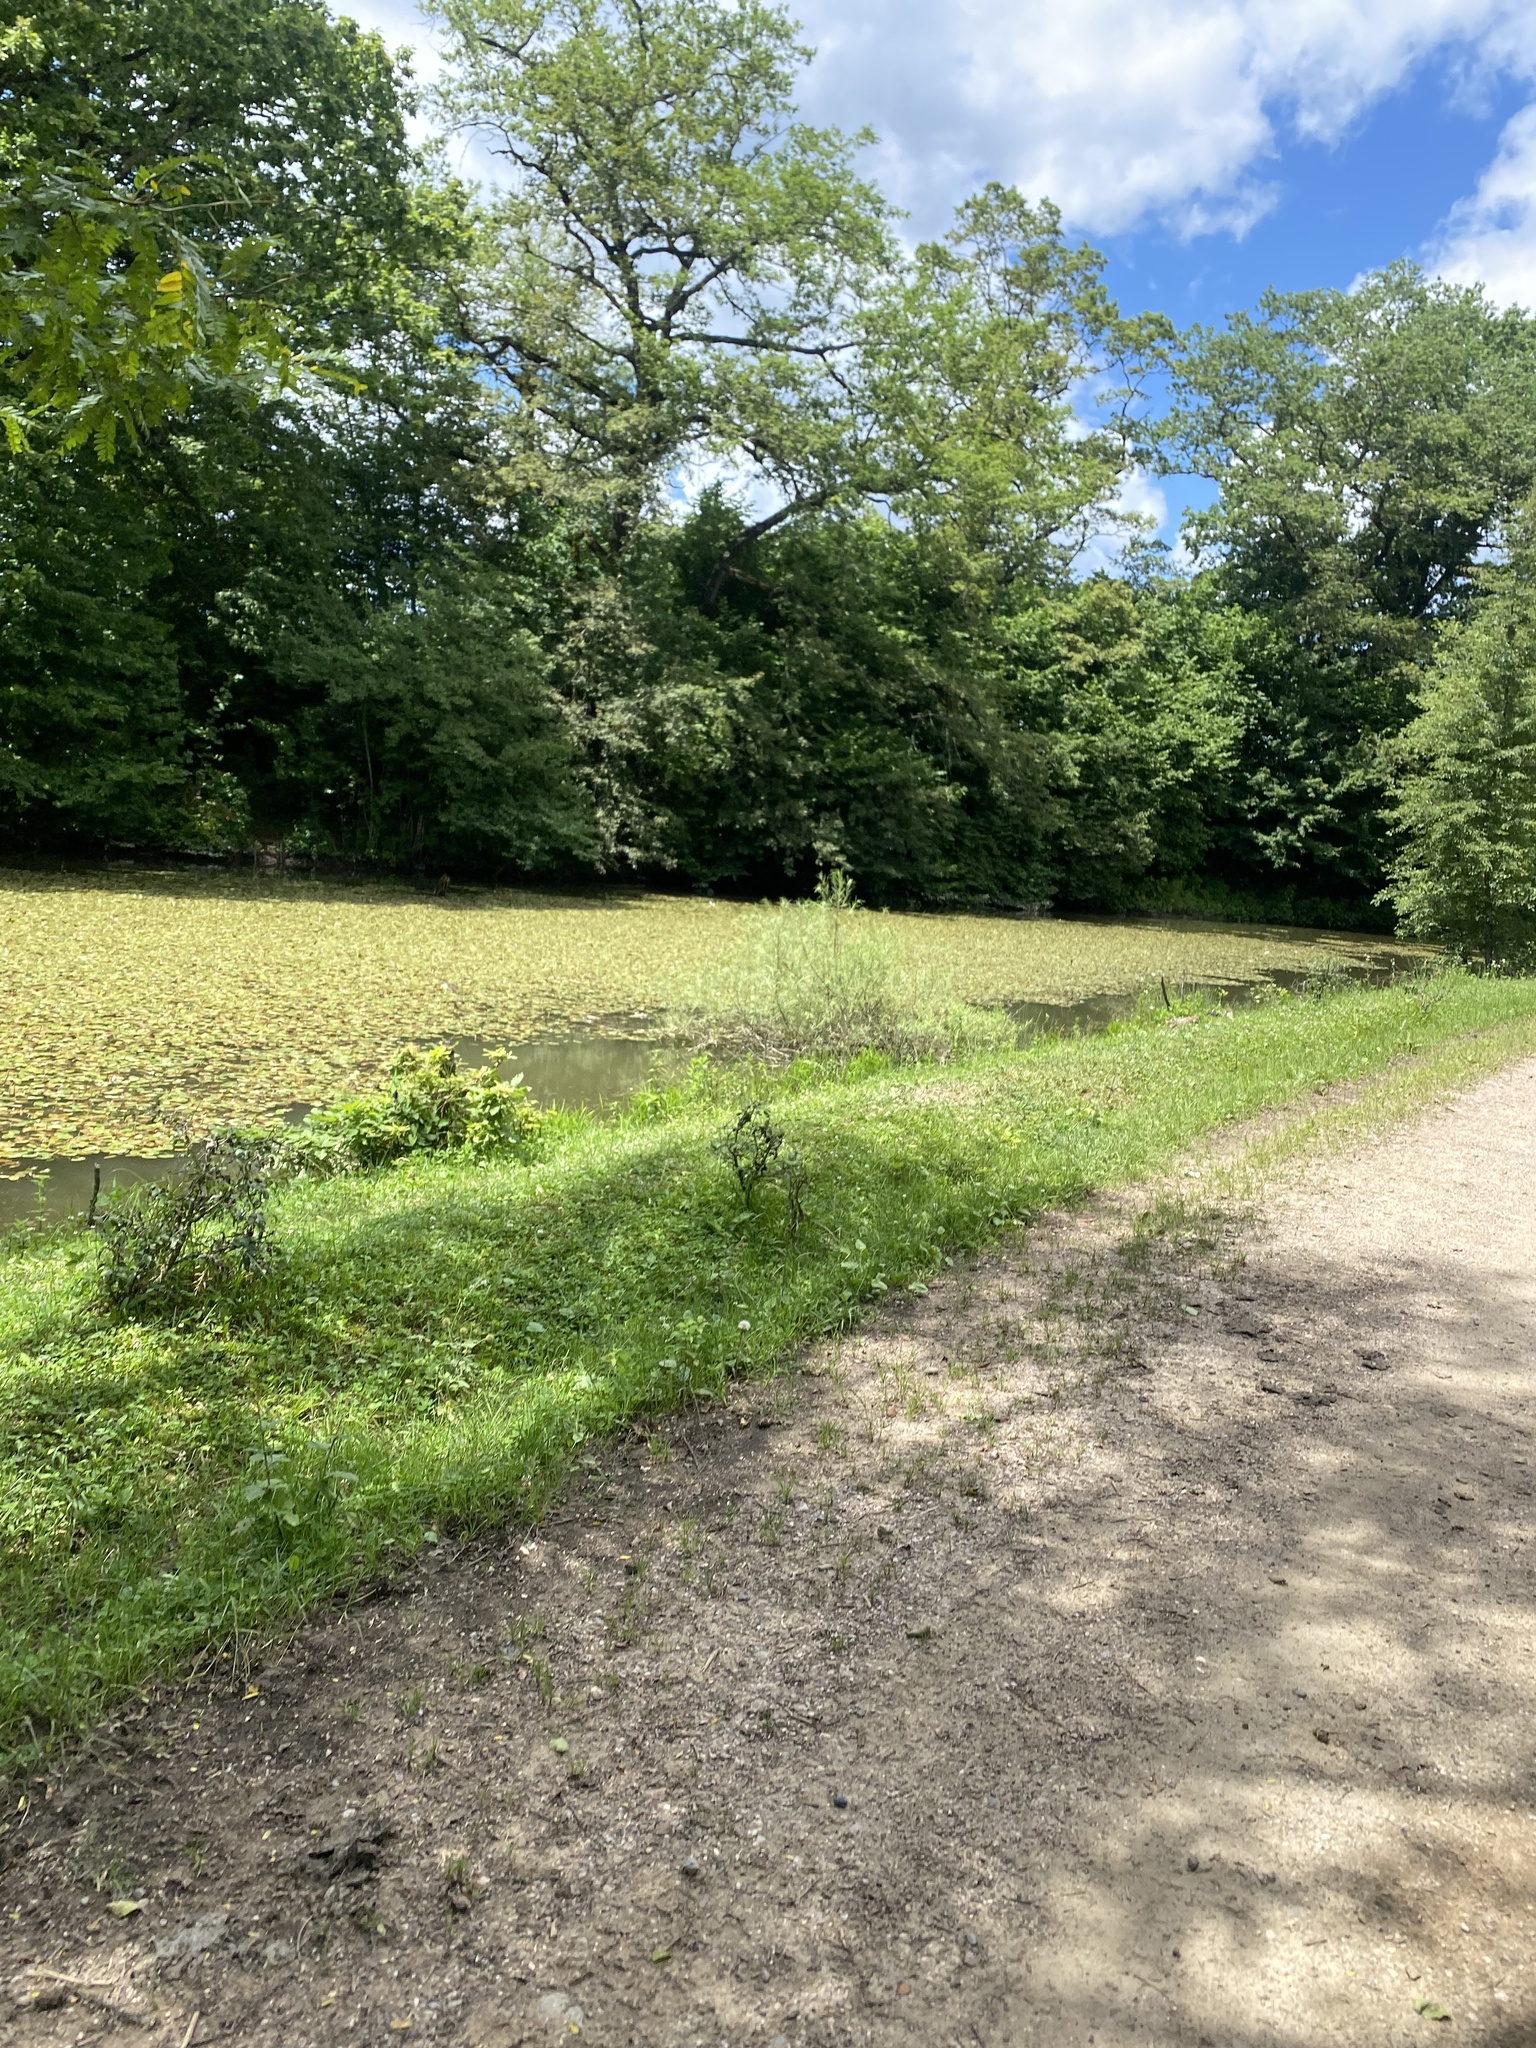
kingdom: Plantae
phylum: Tracheophyta
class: Liliopsida
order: Alismatales
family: Potamogetonaceae
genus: Potamogeton
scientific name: Potamogeton natans
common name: Broad-leaved pondweed
